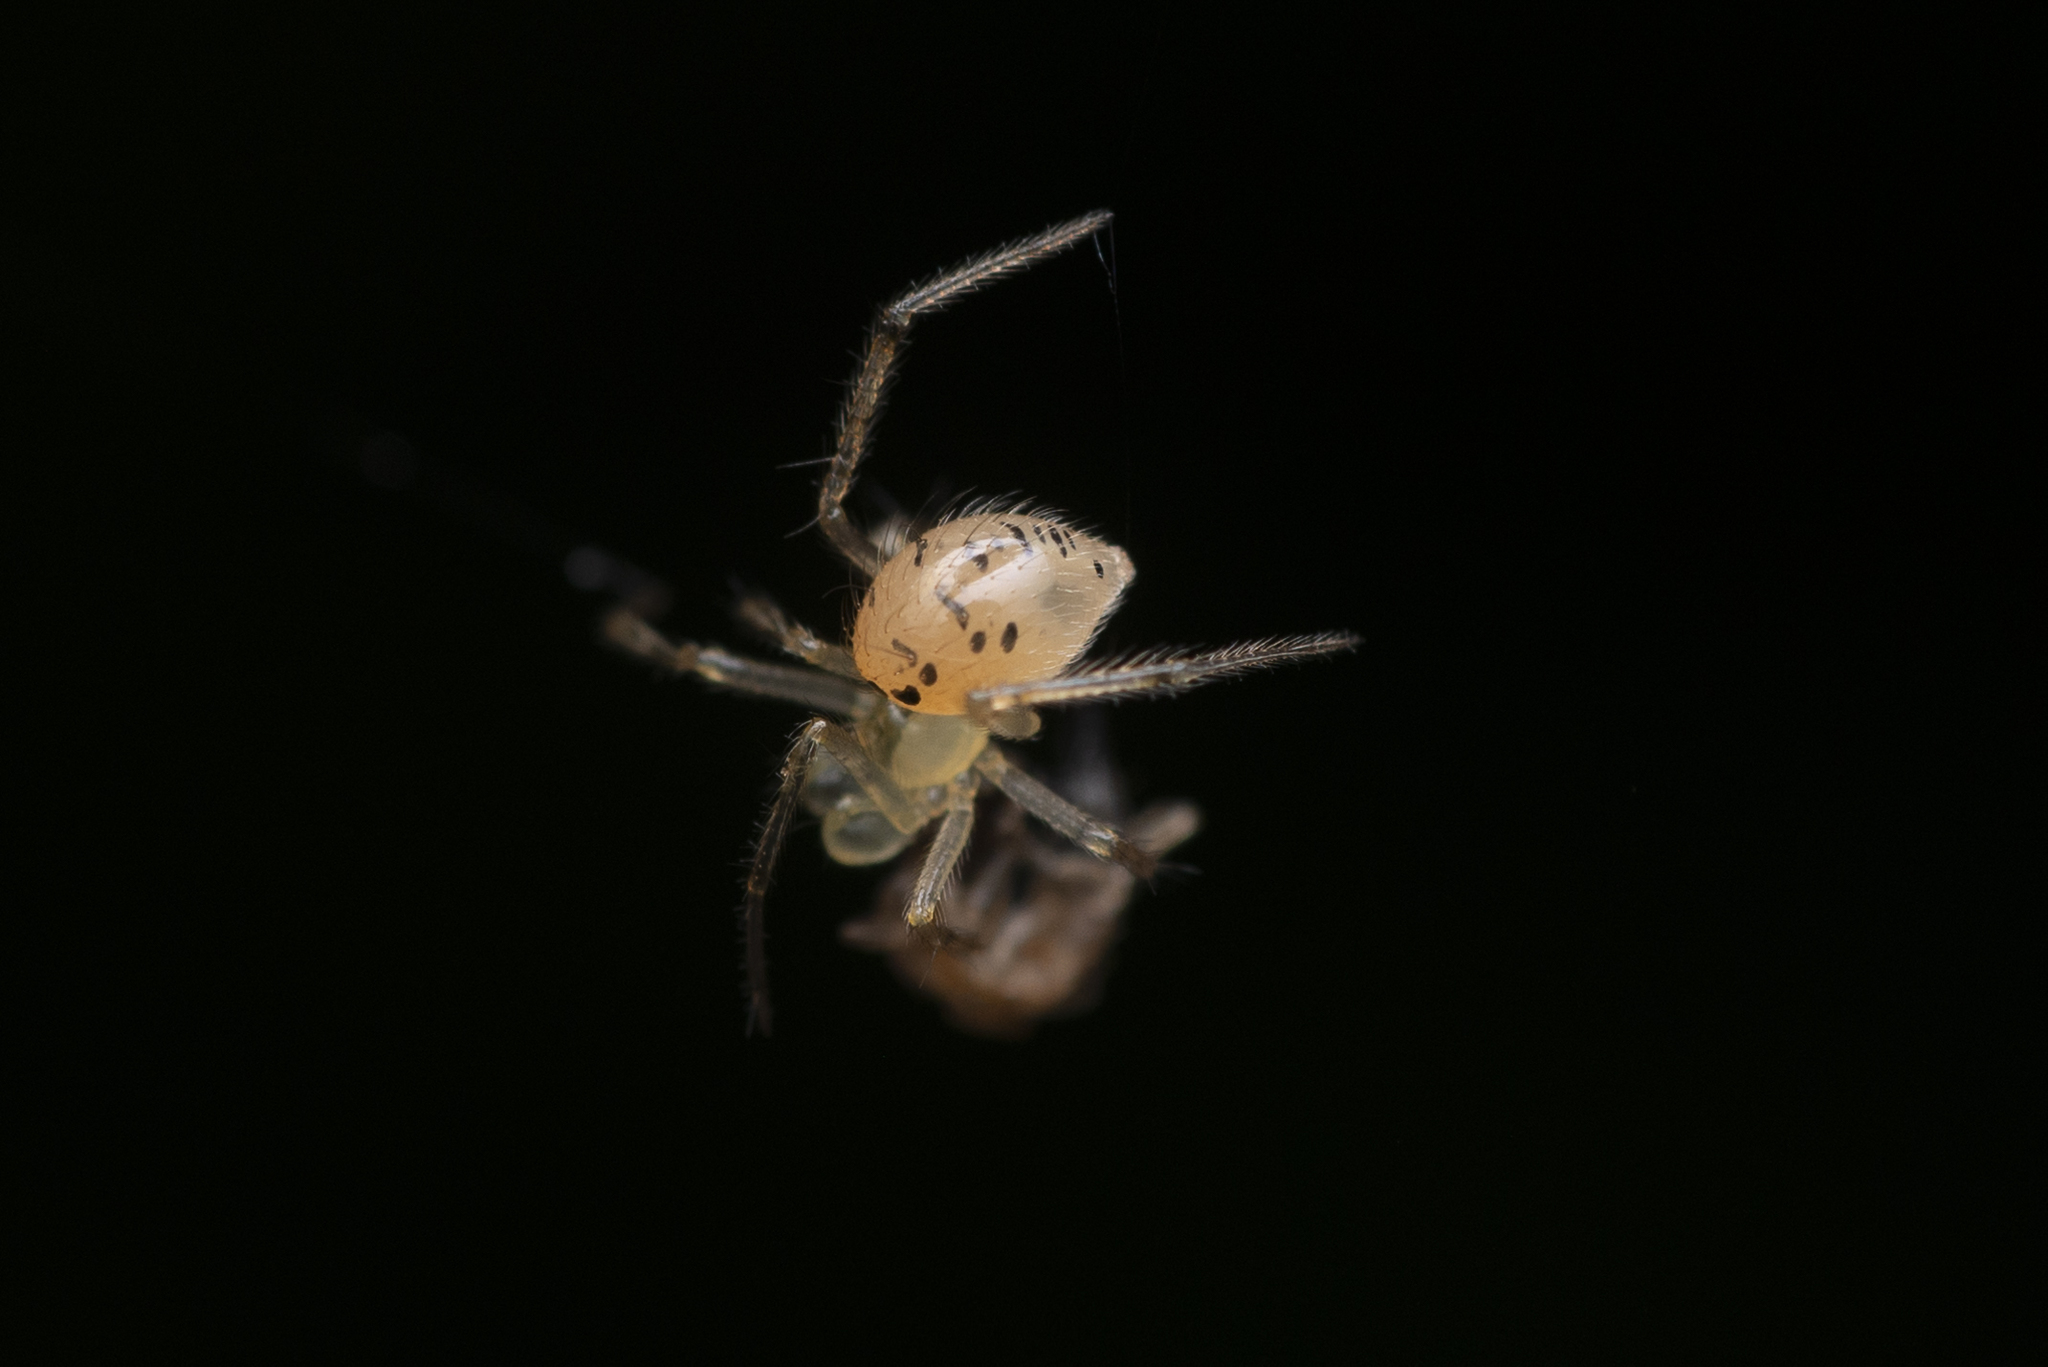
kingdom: Animalia
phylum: Arthropoda
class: Arachnida
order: Araneae
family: Theridiidae
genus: Phycosoma
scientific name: Phycosoma digitula
